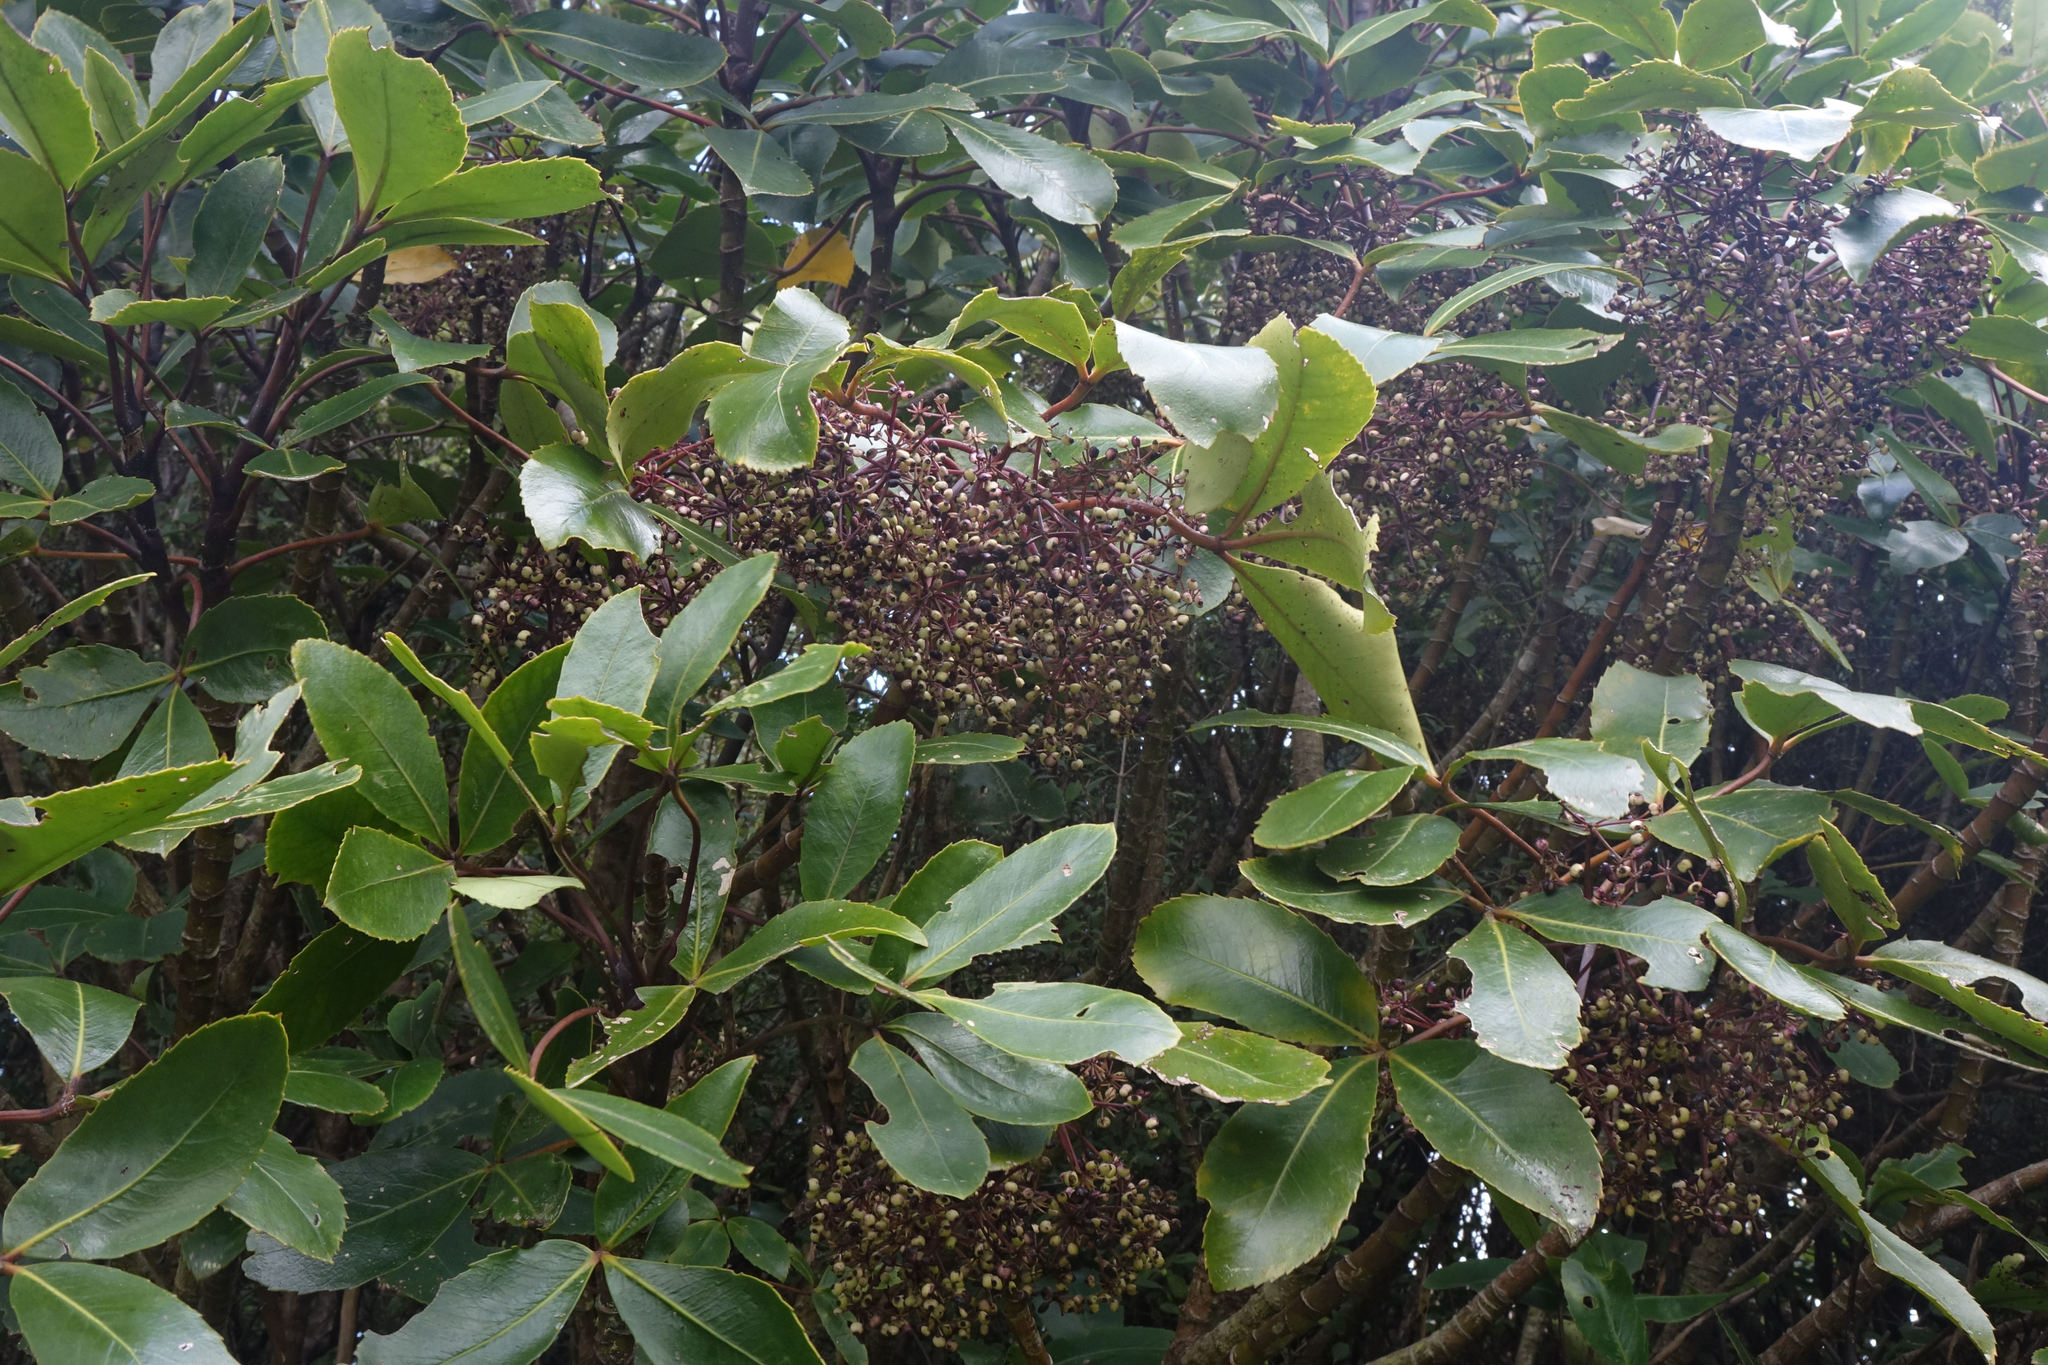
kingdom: Plantae
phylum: Tracheophyta
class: Magnoliopsida
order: Apiales
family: Araliaceae
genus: Neopanax
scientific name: Neopanax colensoi
